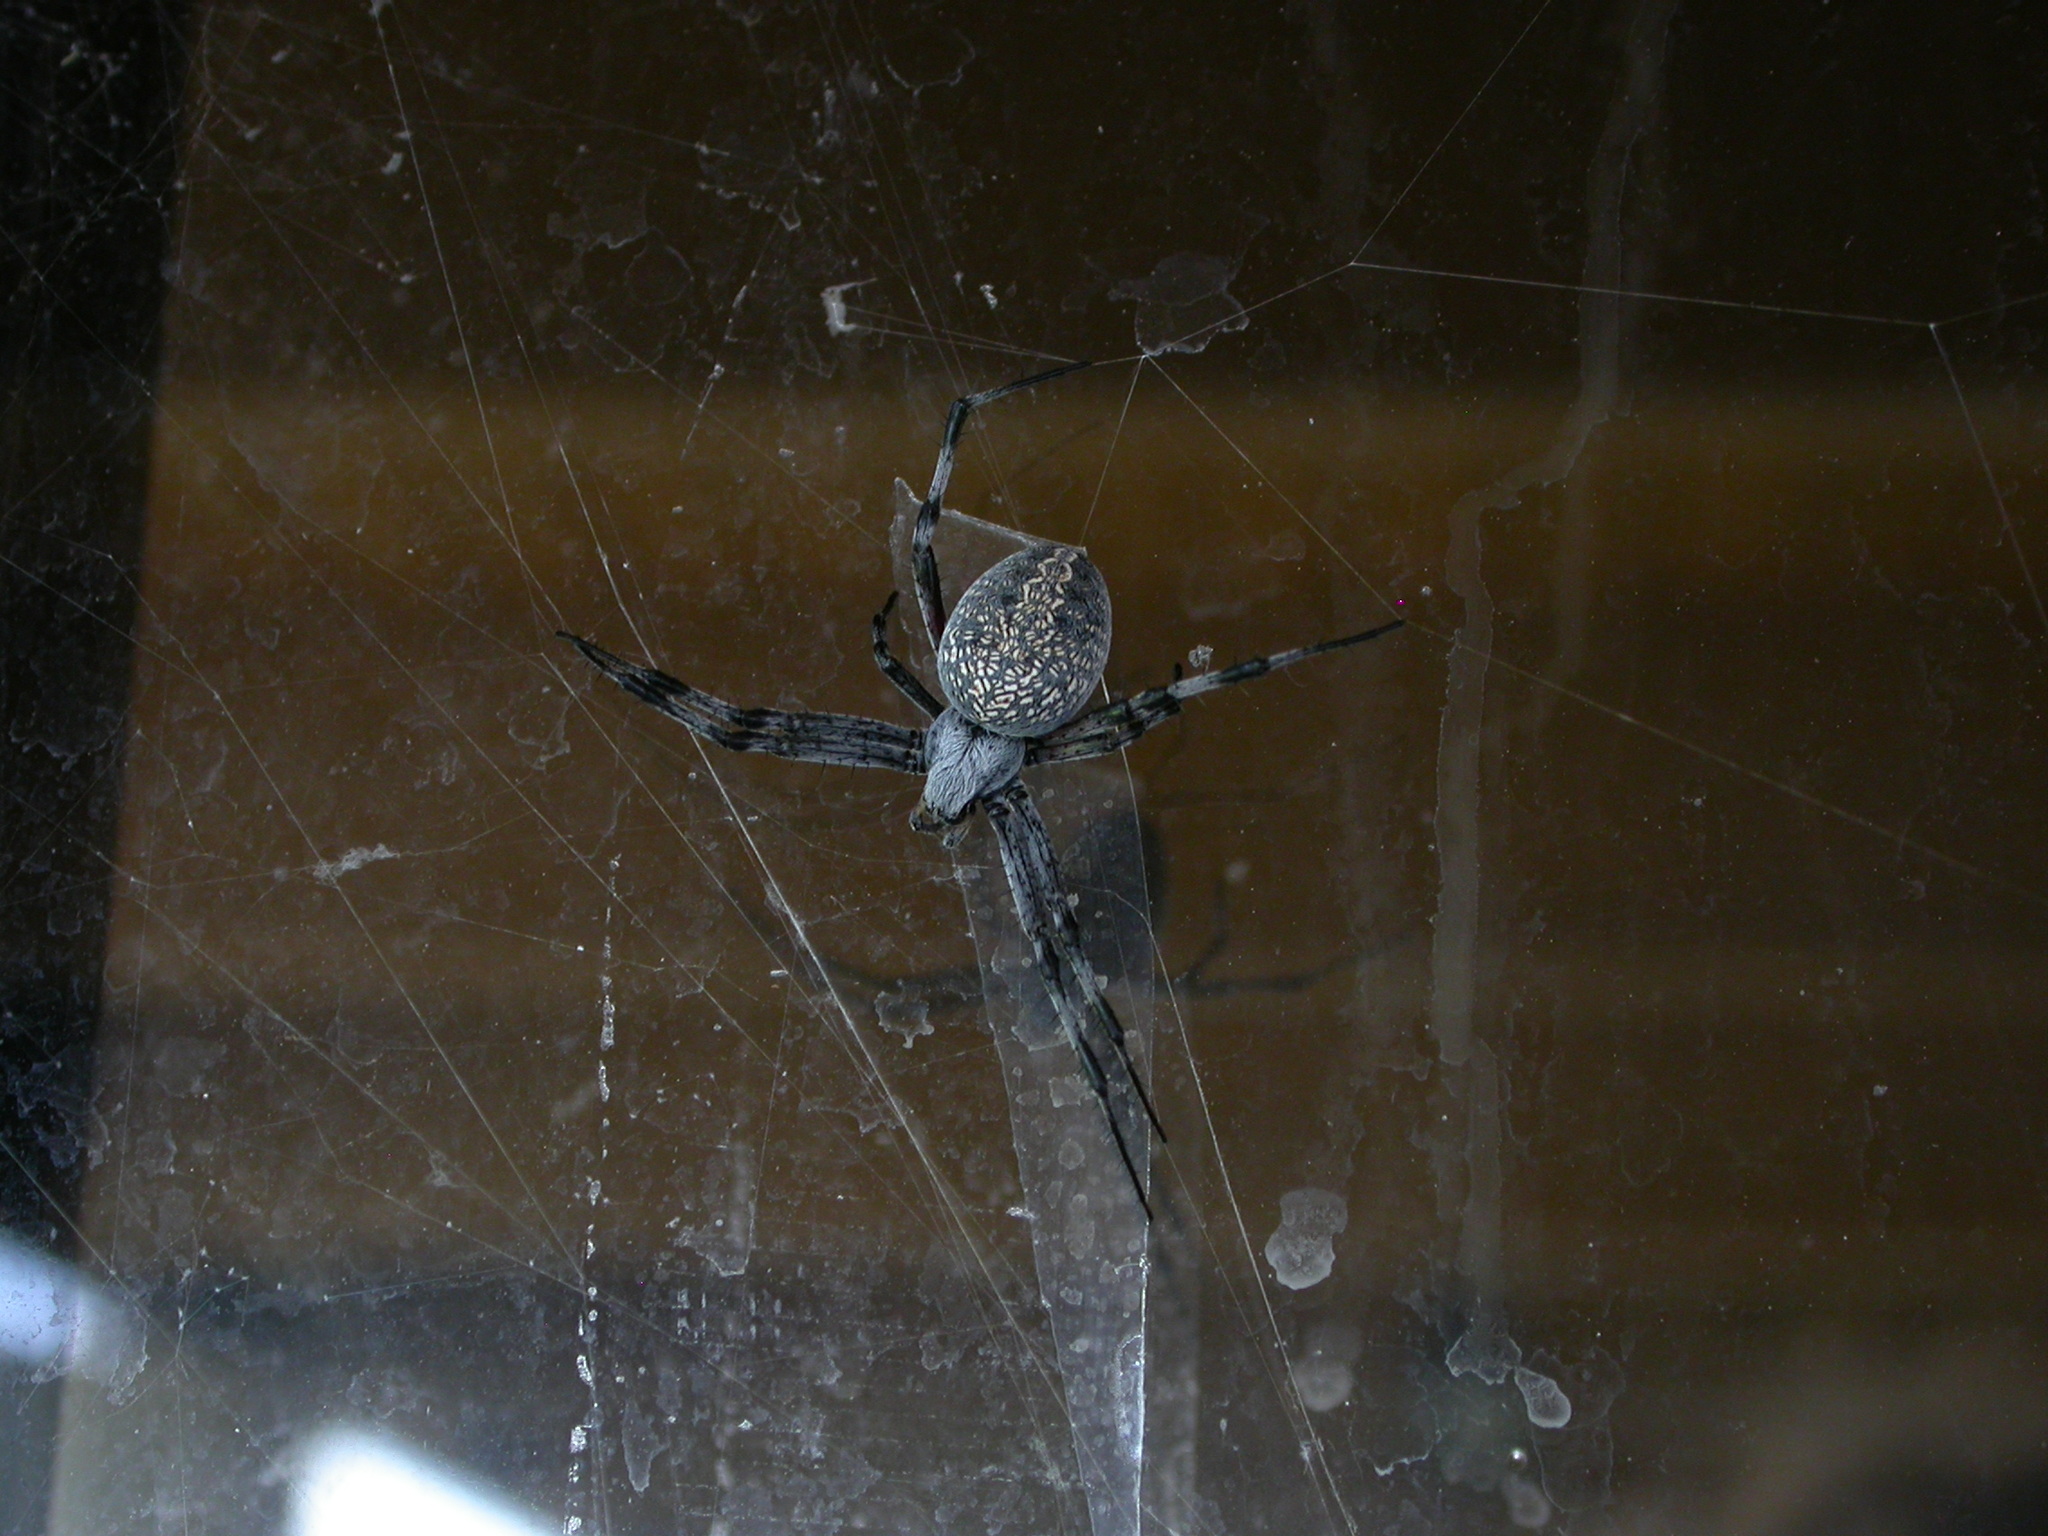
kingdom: Animalia
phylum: Arthropoda
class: Arachnida
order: Araneae
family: Araneidae
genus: Neoscona
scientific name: Neoscona oaxacensis
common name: Orb weavers
